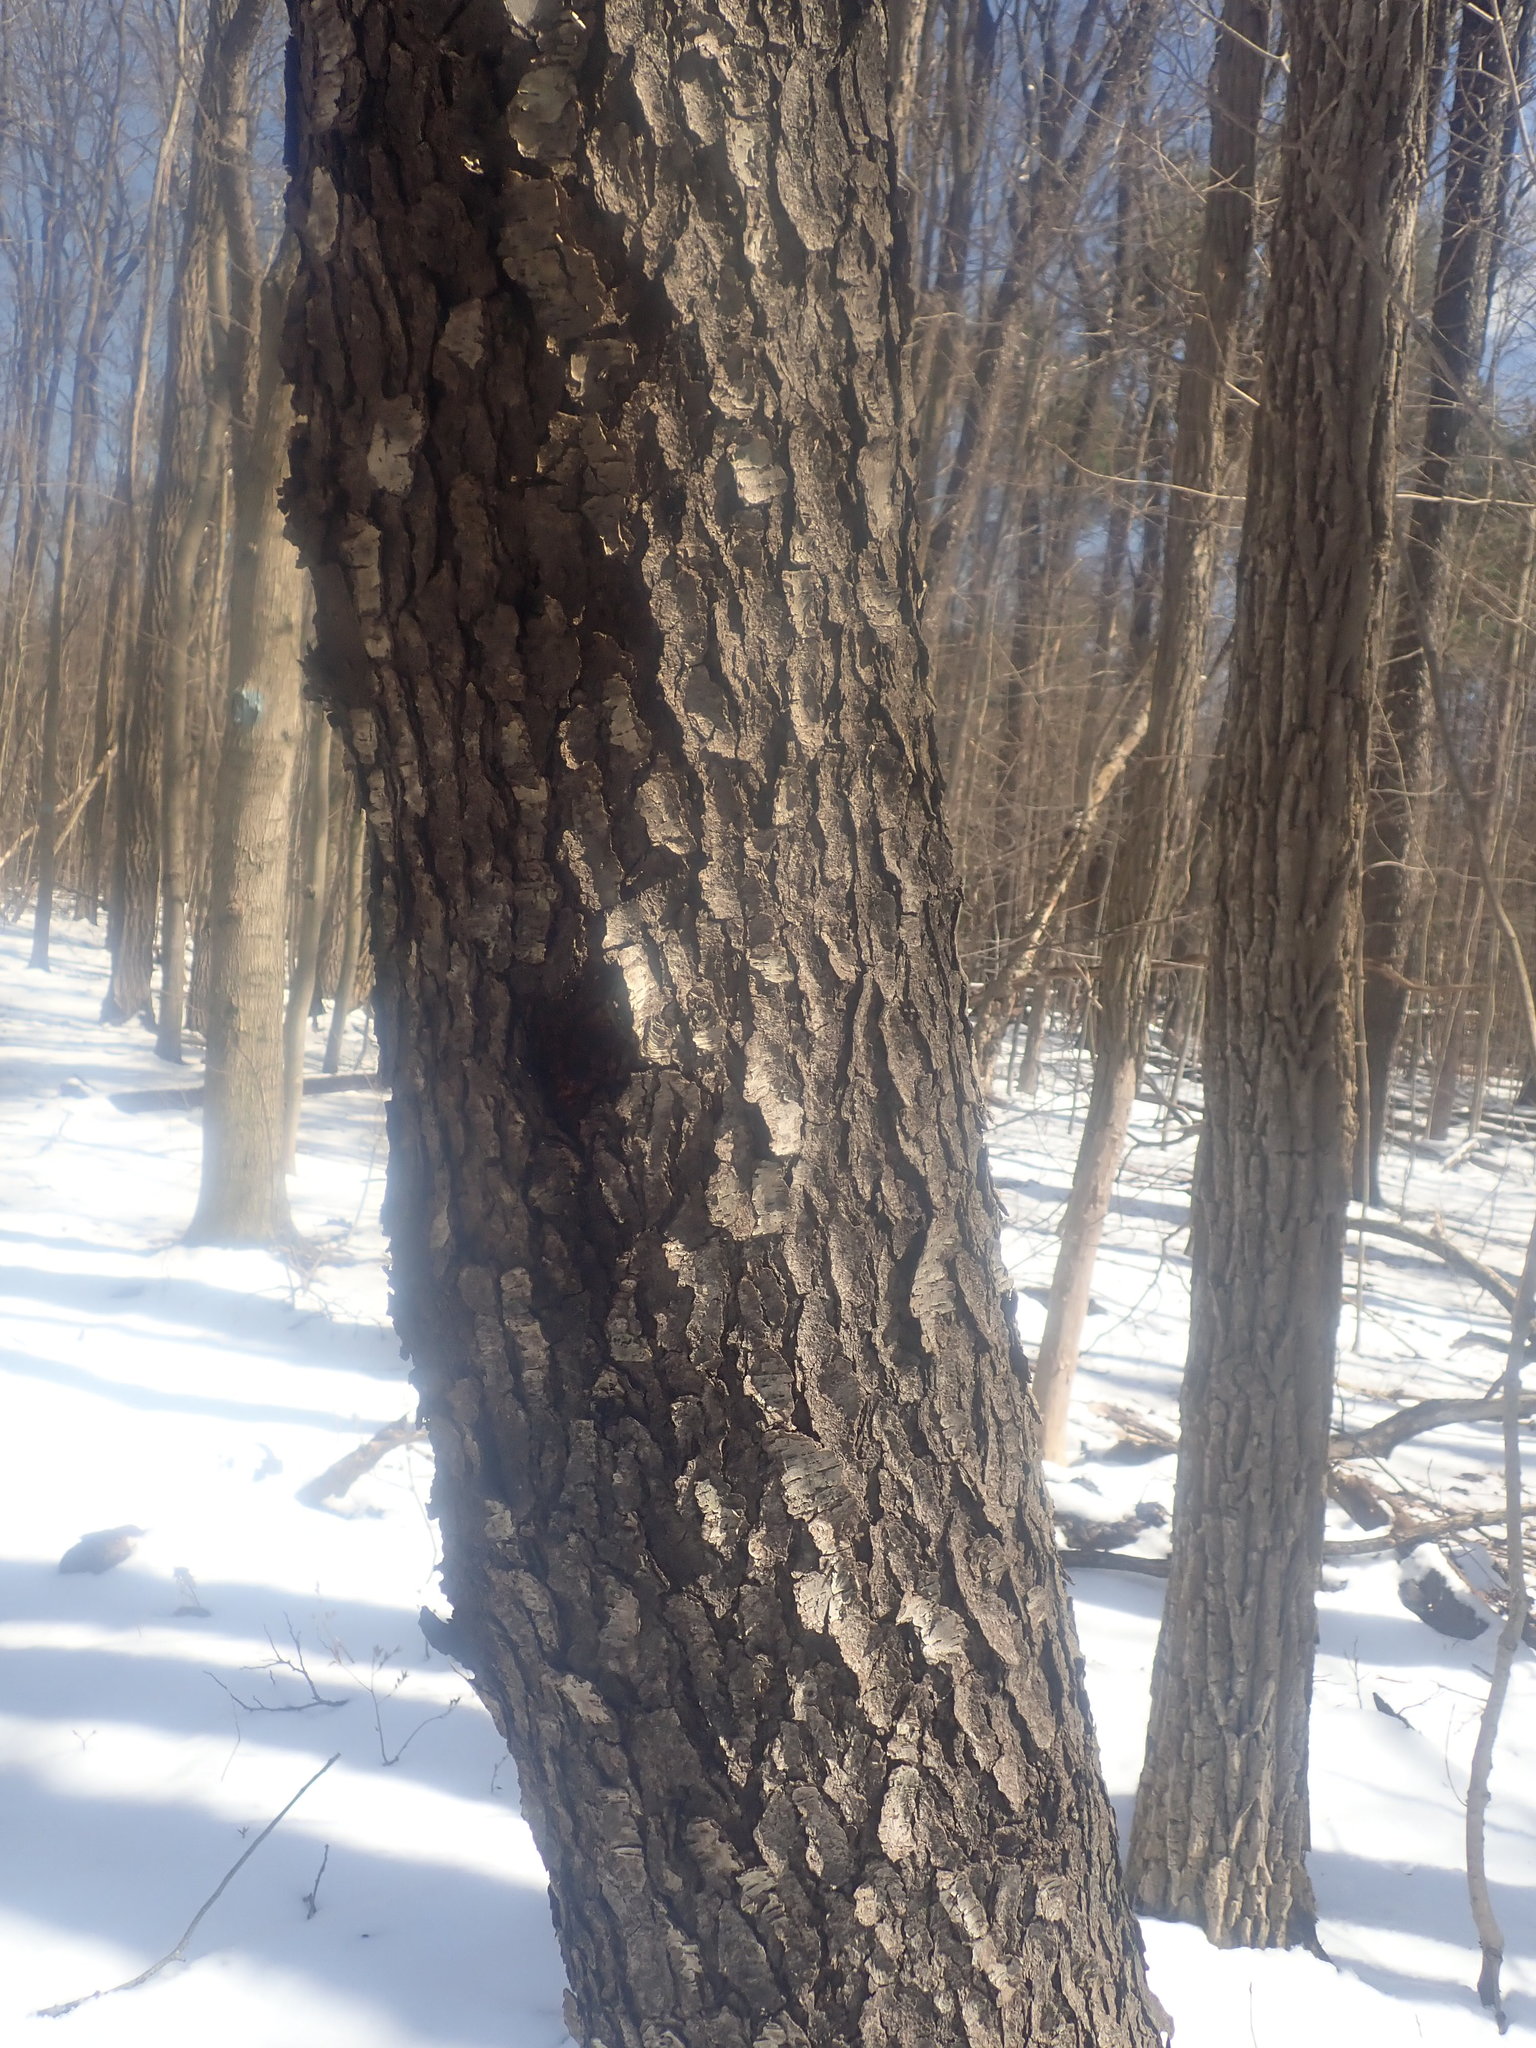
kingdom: Plantae
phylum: Tracheophyta
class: Magnoliopsida
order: Rosales
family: Rosaceae
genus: Prunus
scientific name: Prunus serotina
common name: Black cherry
